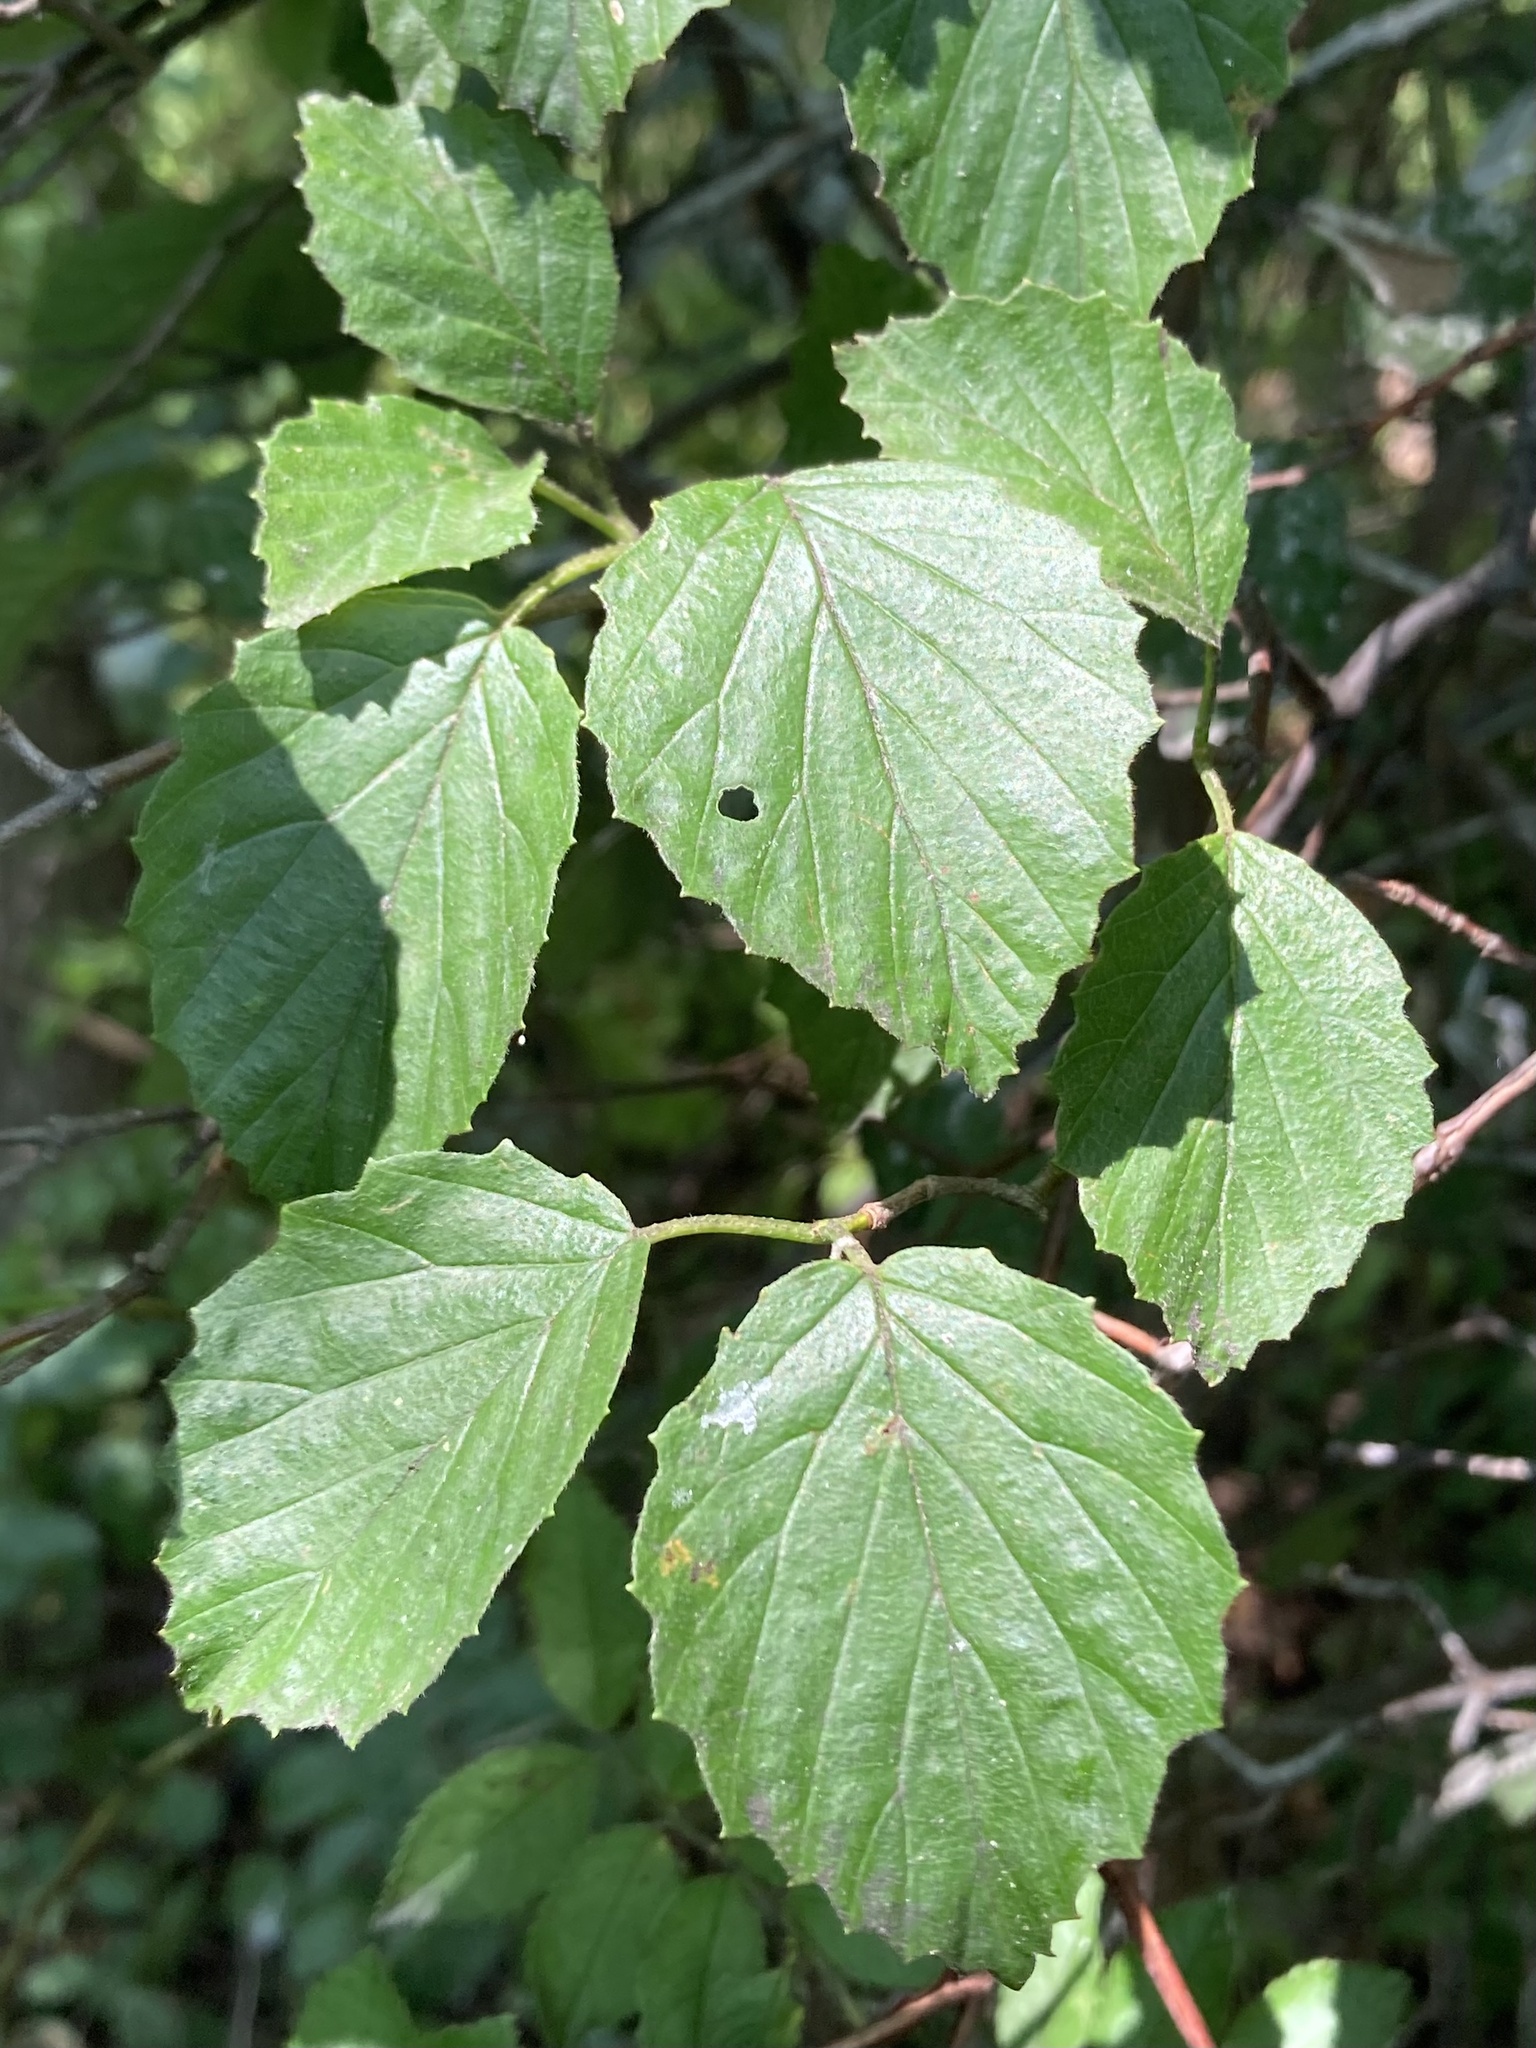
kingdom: Plantae
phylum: Tracheophyta
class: Magnoliopsida
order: Dipsacales
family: Viburnaceae
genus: Viburnum
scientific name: Viburnum dentatum
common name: Arrow-wood
